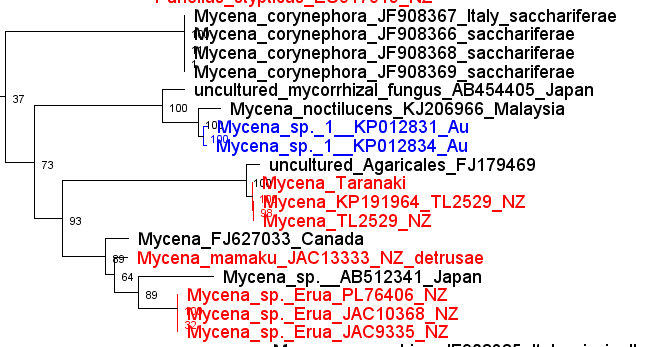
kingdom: Fungi
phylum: Basidiomycota
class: Agaricomycetes
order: Agaricales
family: Mycenaceae
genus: Mycena
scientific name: Mycena mamaku
